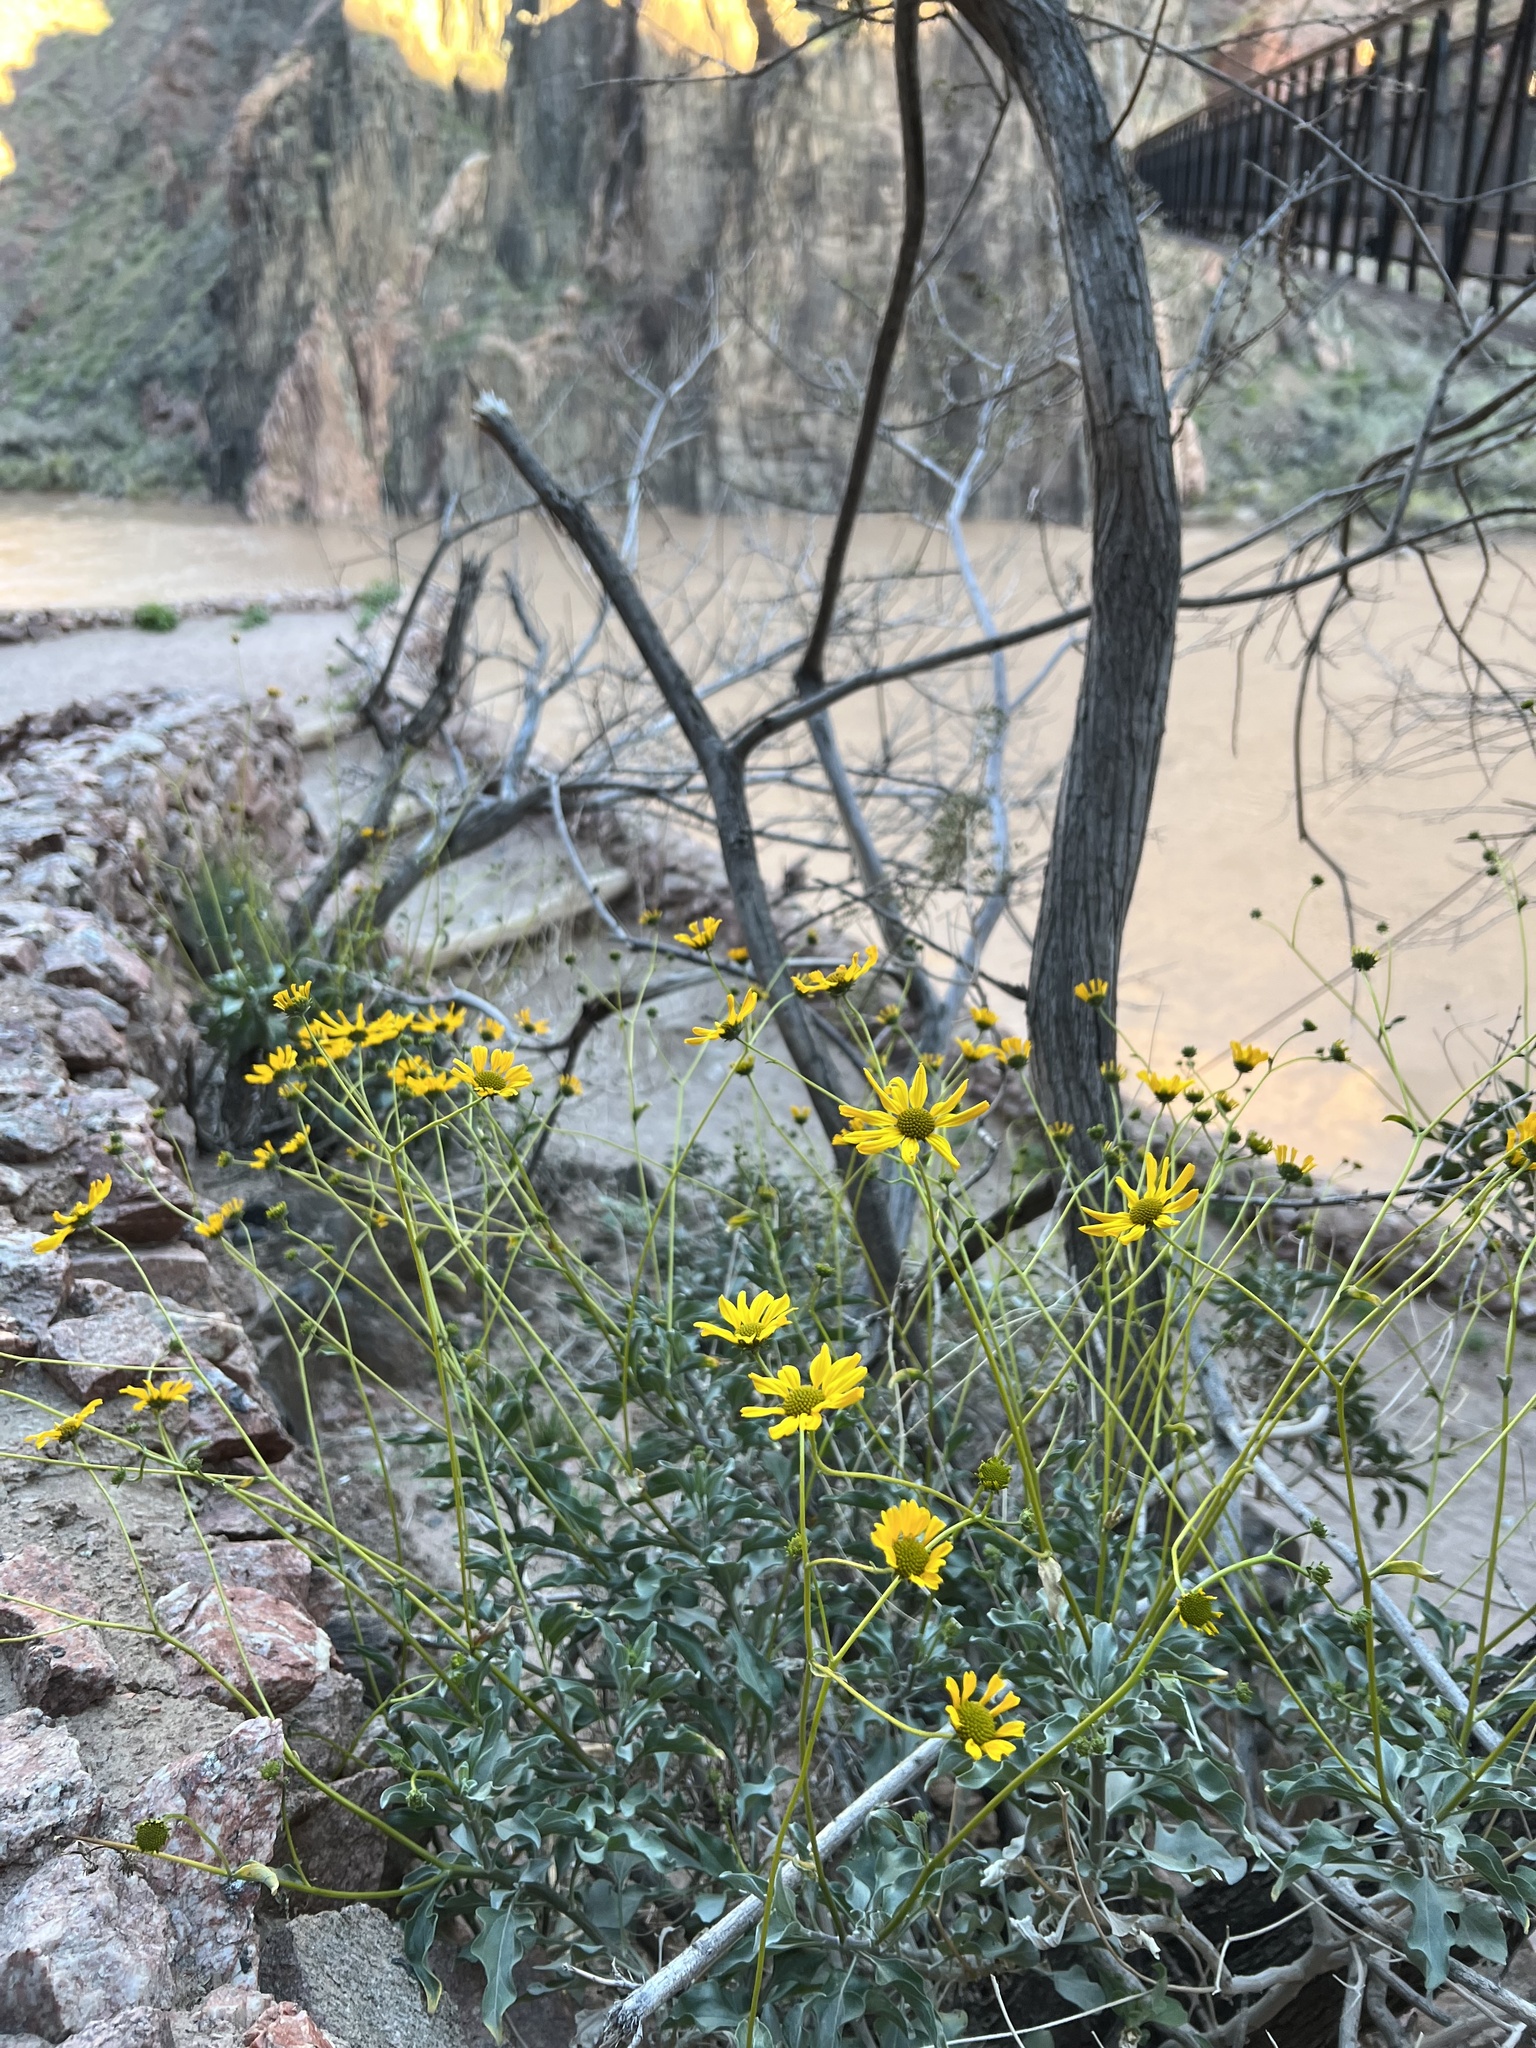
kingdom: Plantae
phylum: Tracheophyta
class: Magnoliopsida
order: Asterales
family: Asteraceae
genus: Encelia
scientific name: Encelia farinosa
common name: Brittlebush
